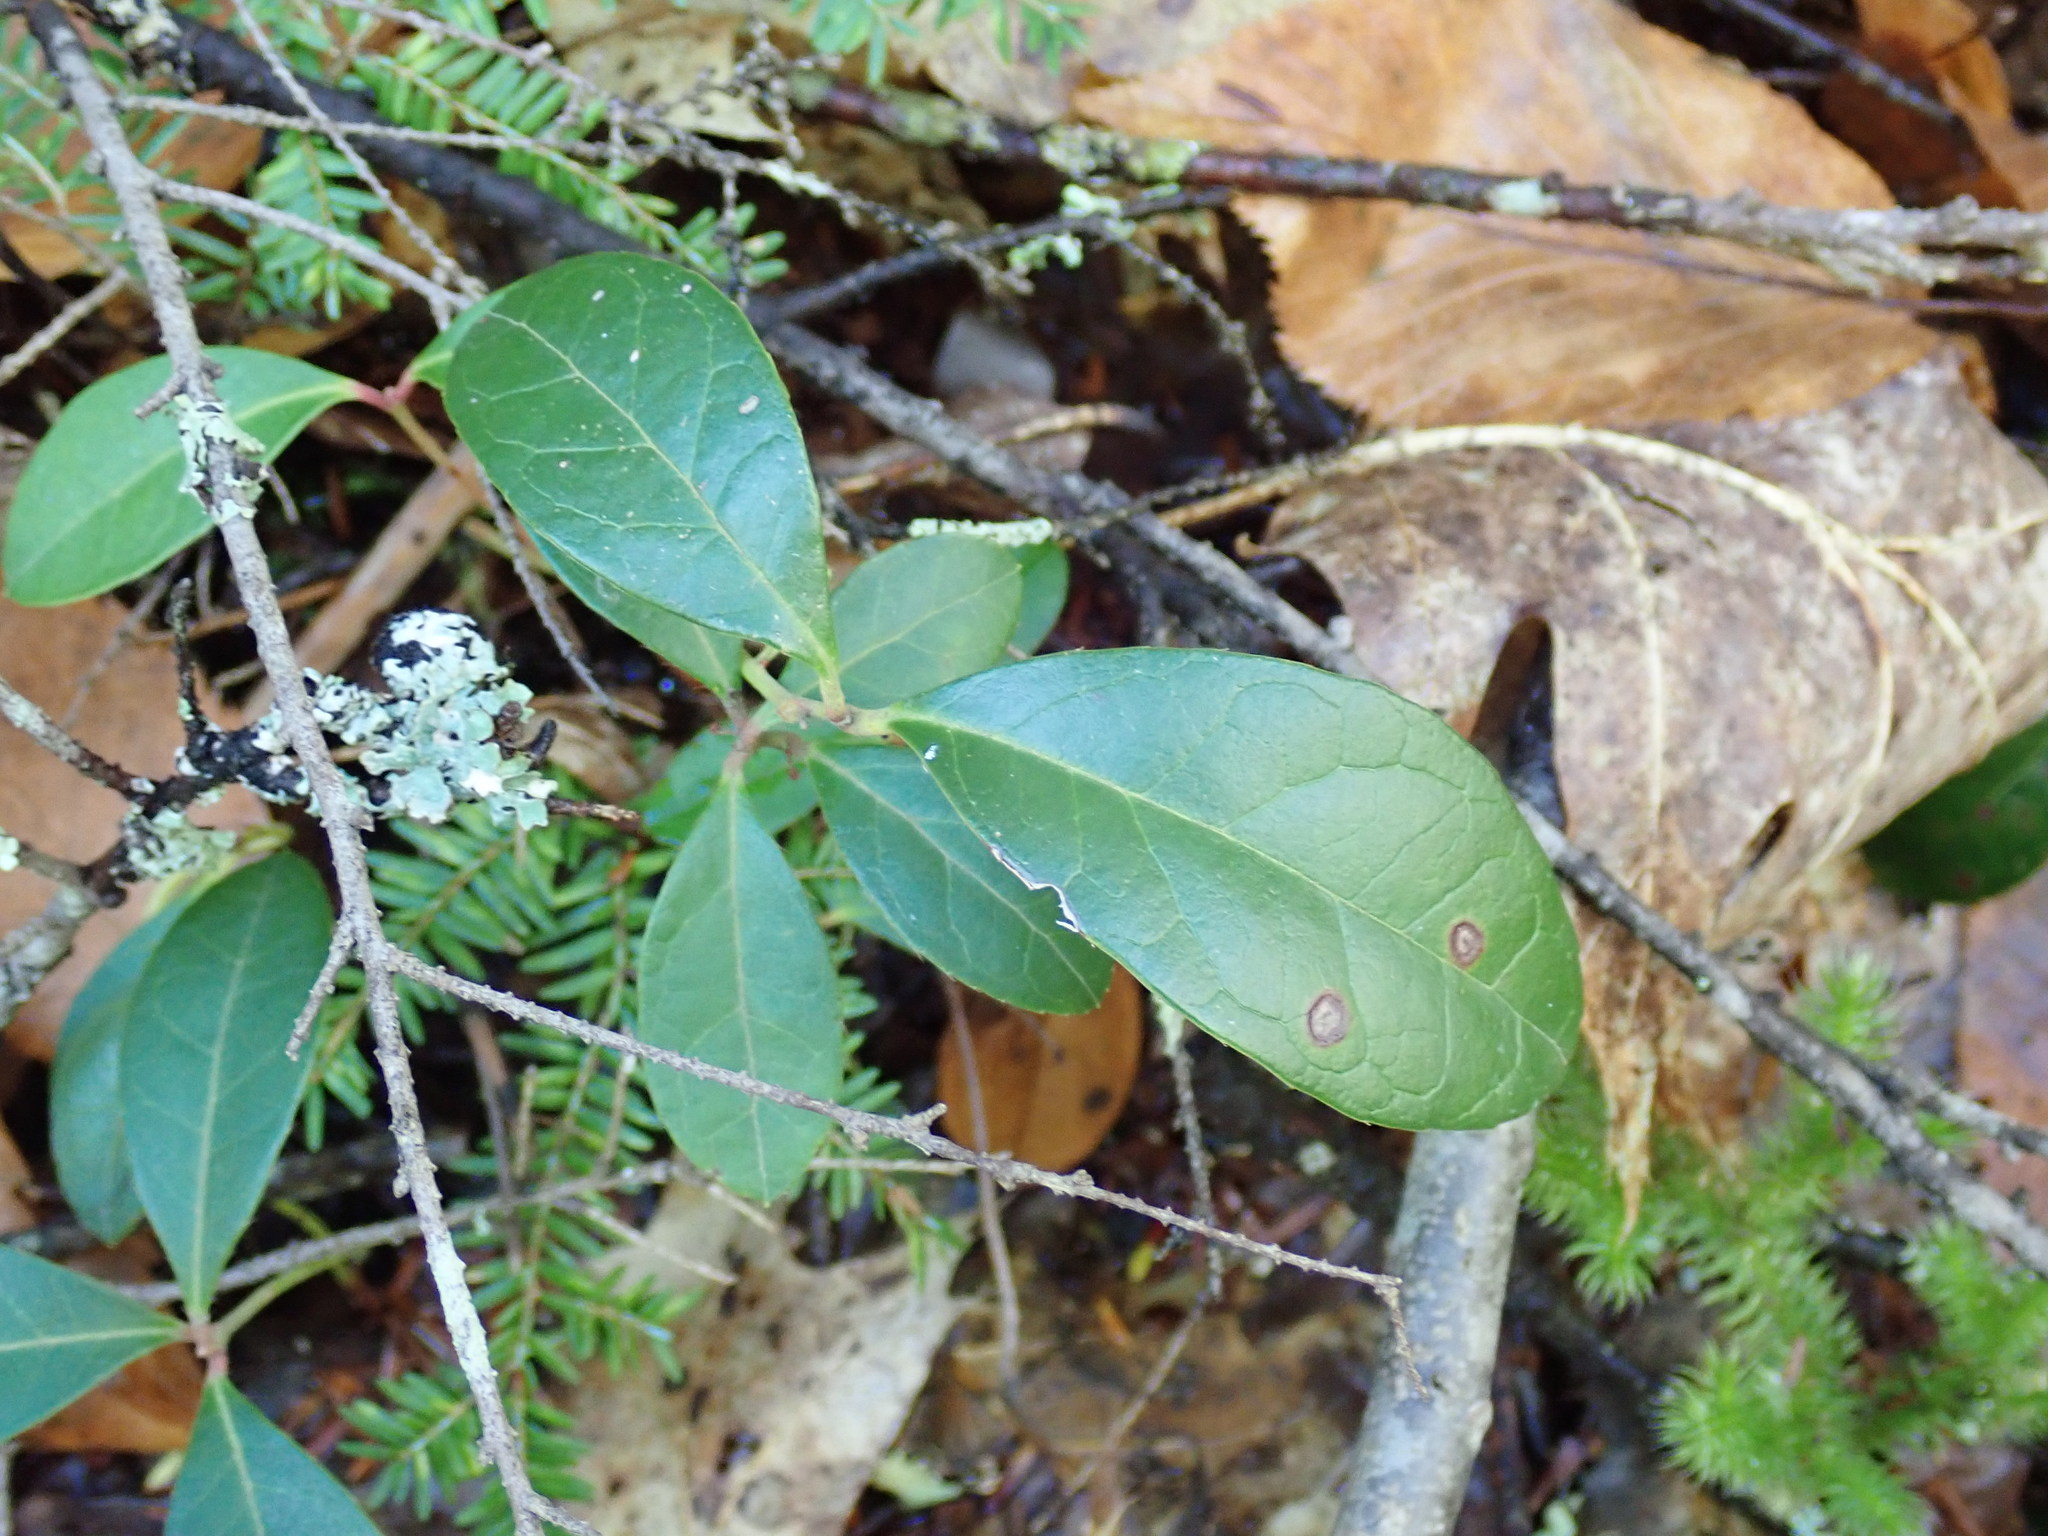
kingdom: Plantae
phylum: Tracheophyta
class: Magnoliopsida
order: Ericales
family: Ericaceae
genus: Gaultheria
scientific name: Gaultheria procumbens
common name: Checkerberry
